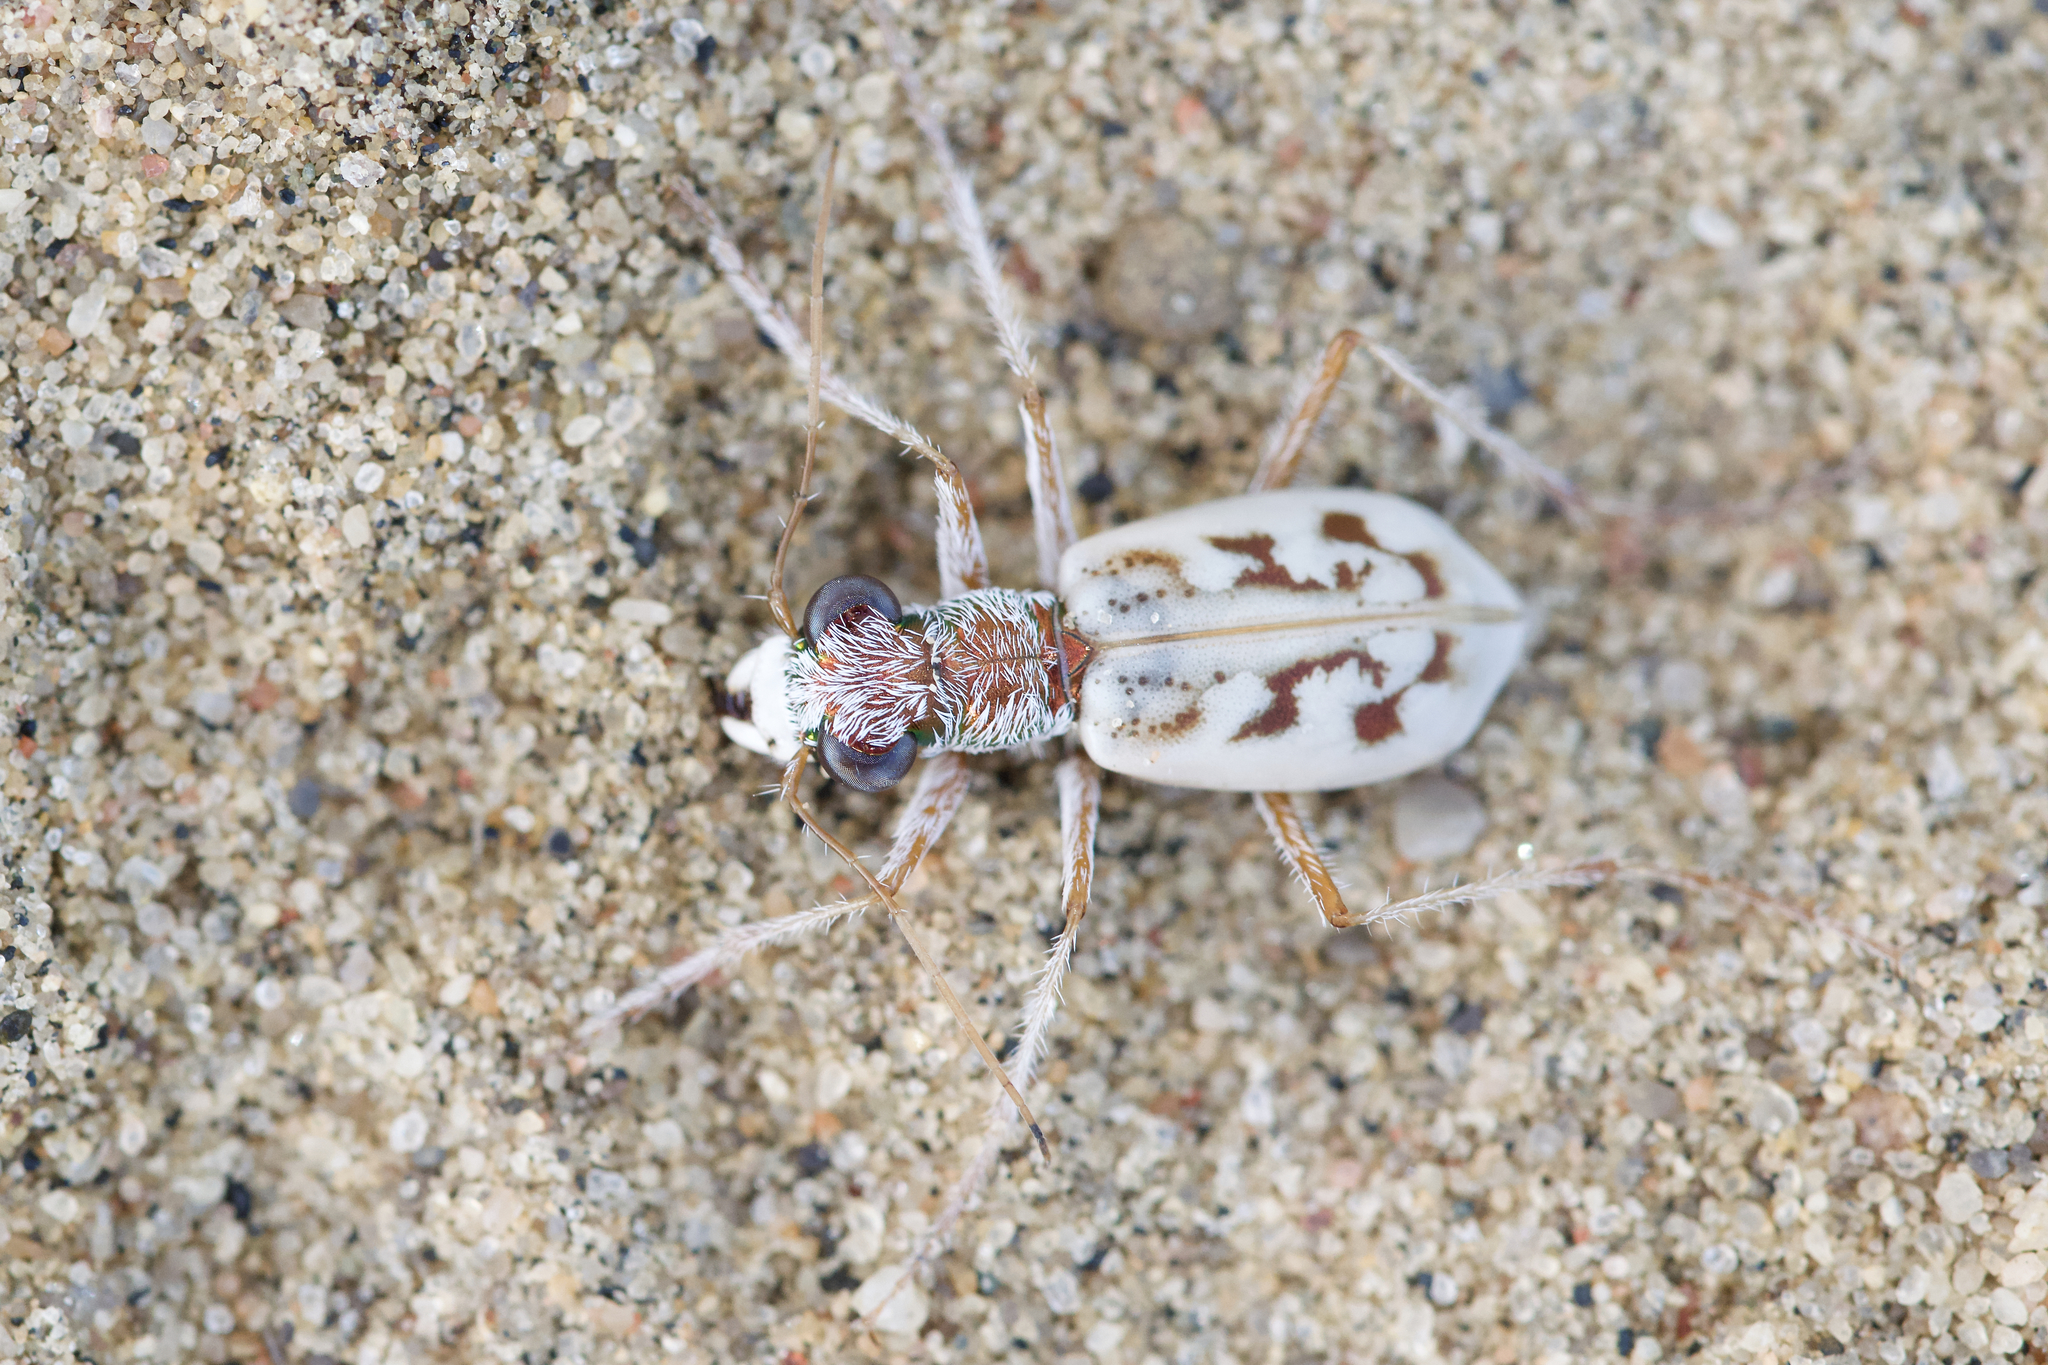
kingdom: Animalia
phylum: Arthropoda
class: Insecta
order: Coleoptera
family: Carabidae
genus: Ellipsoptera
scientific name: Ellipsoptera lepida
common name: Ghost tiger beetle
